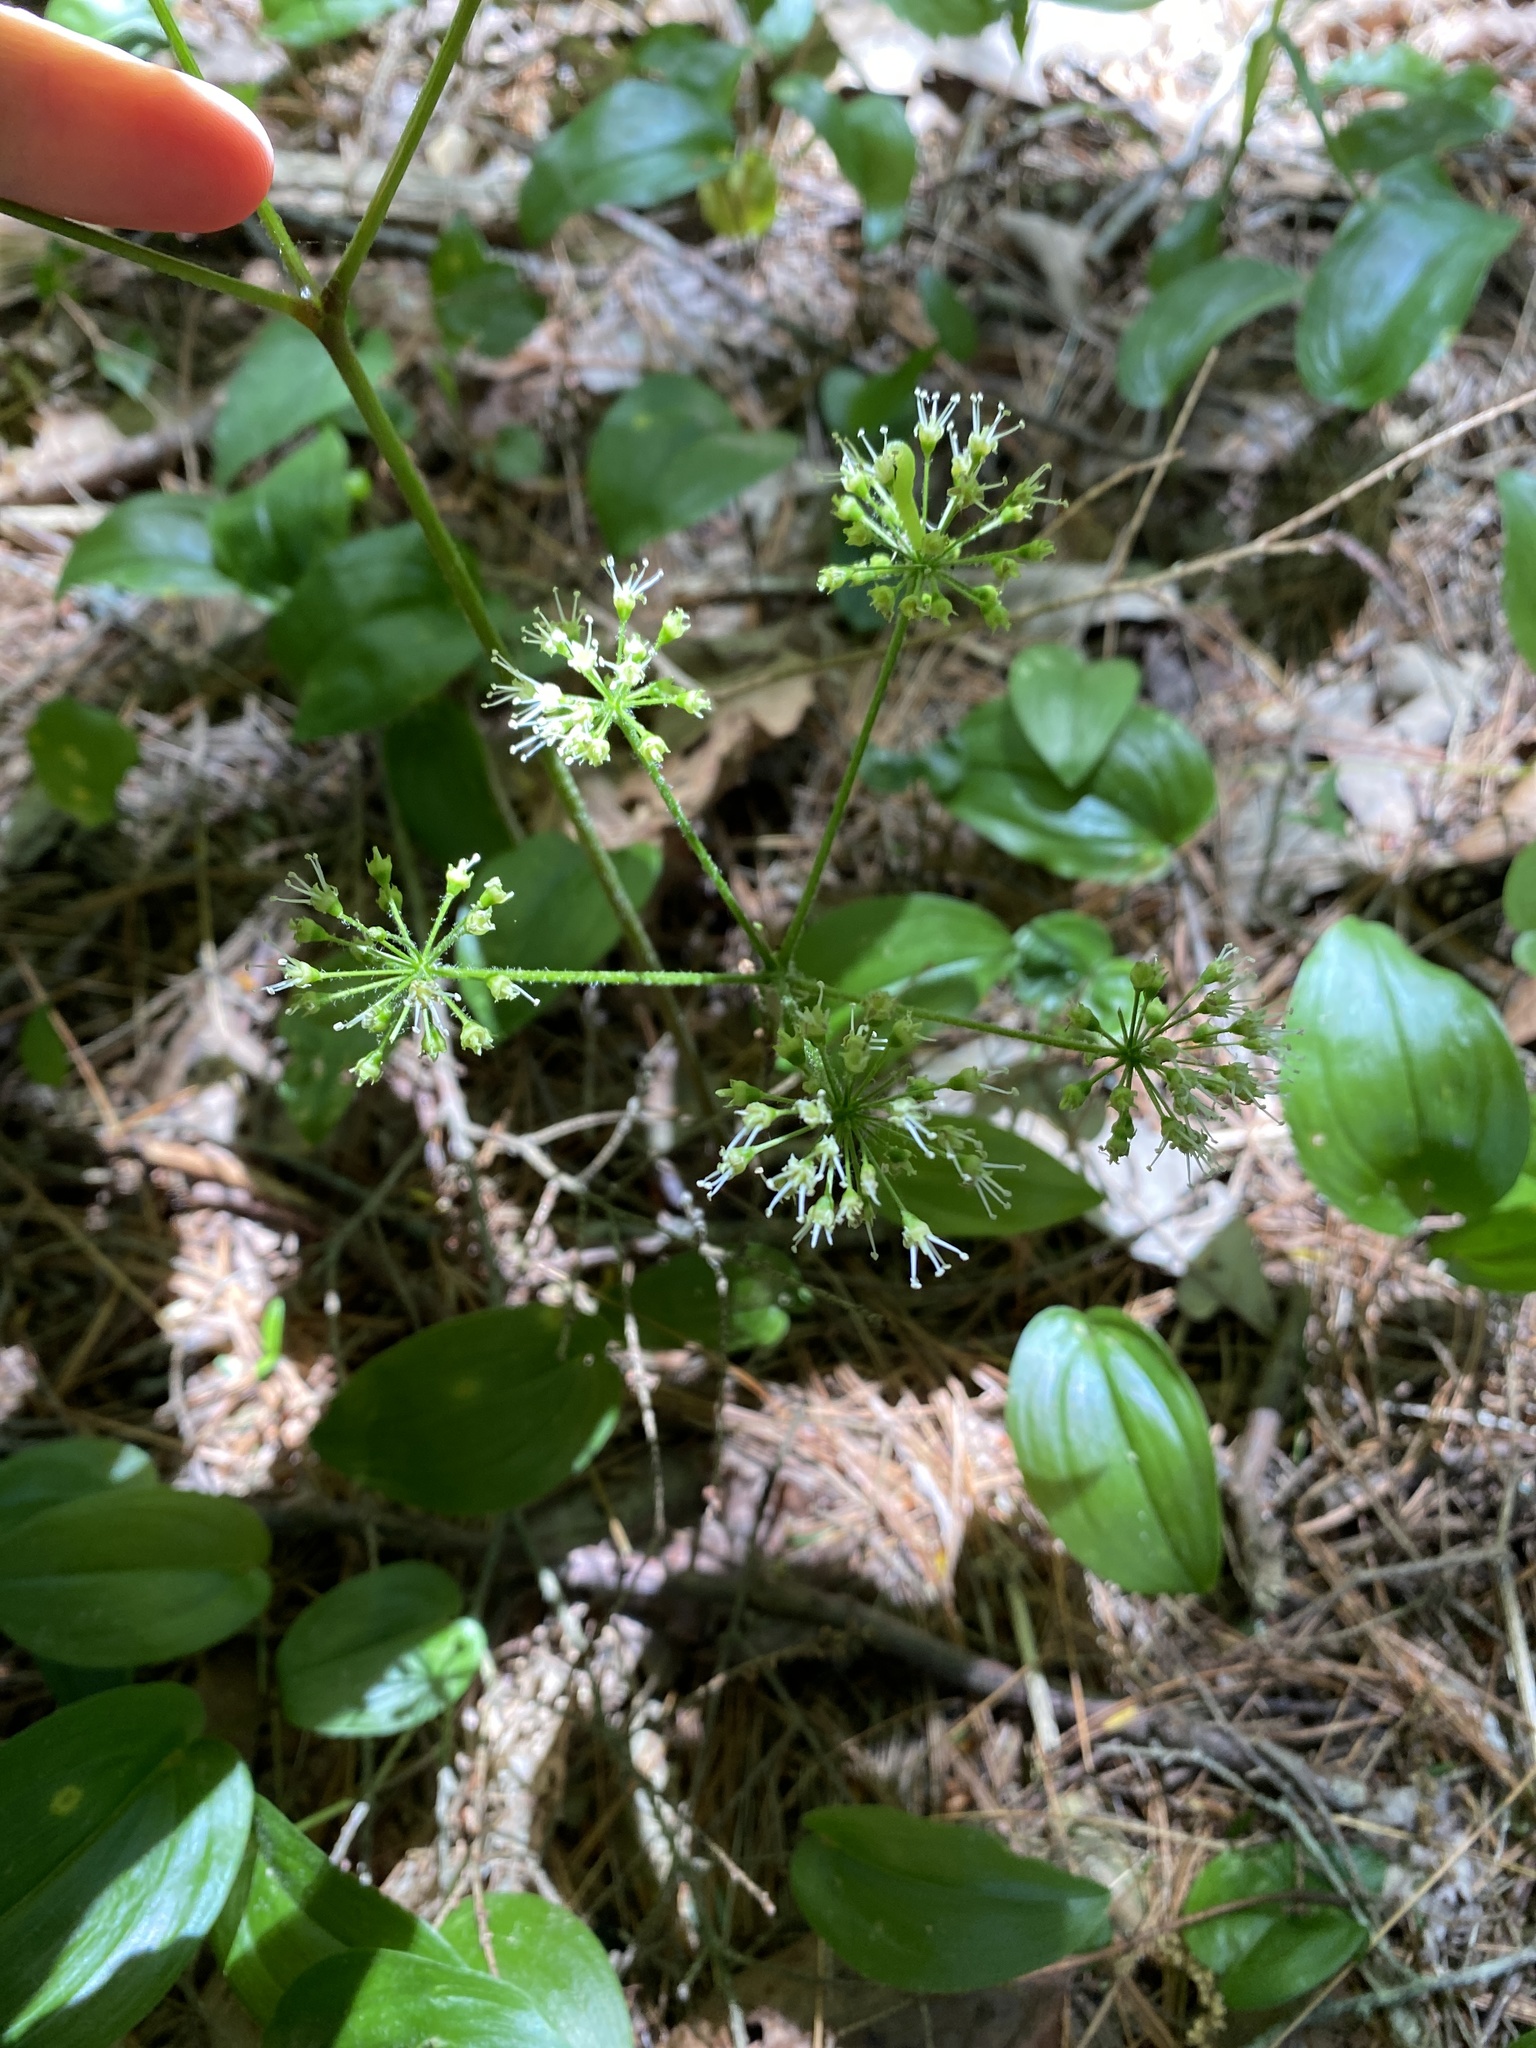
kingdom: Plantae
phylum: Tracheophyta
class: Magnoliopsida
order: Apiales
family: Araliaceae
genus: Aralia
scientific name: Aralia nudicaulis
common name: Wild sarsaparilla
